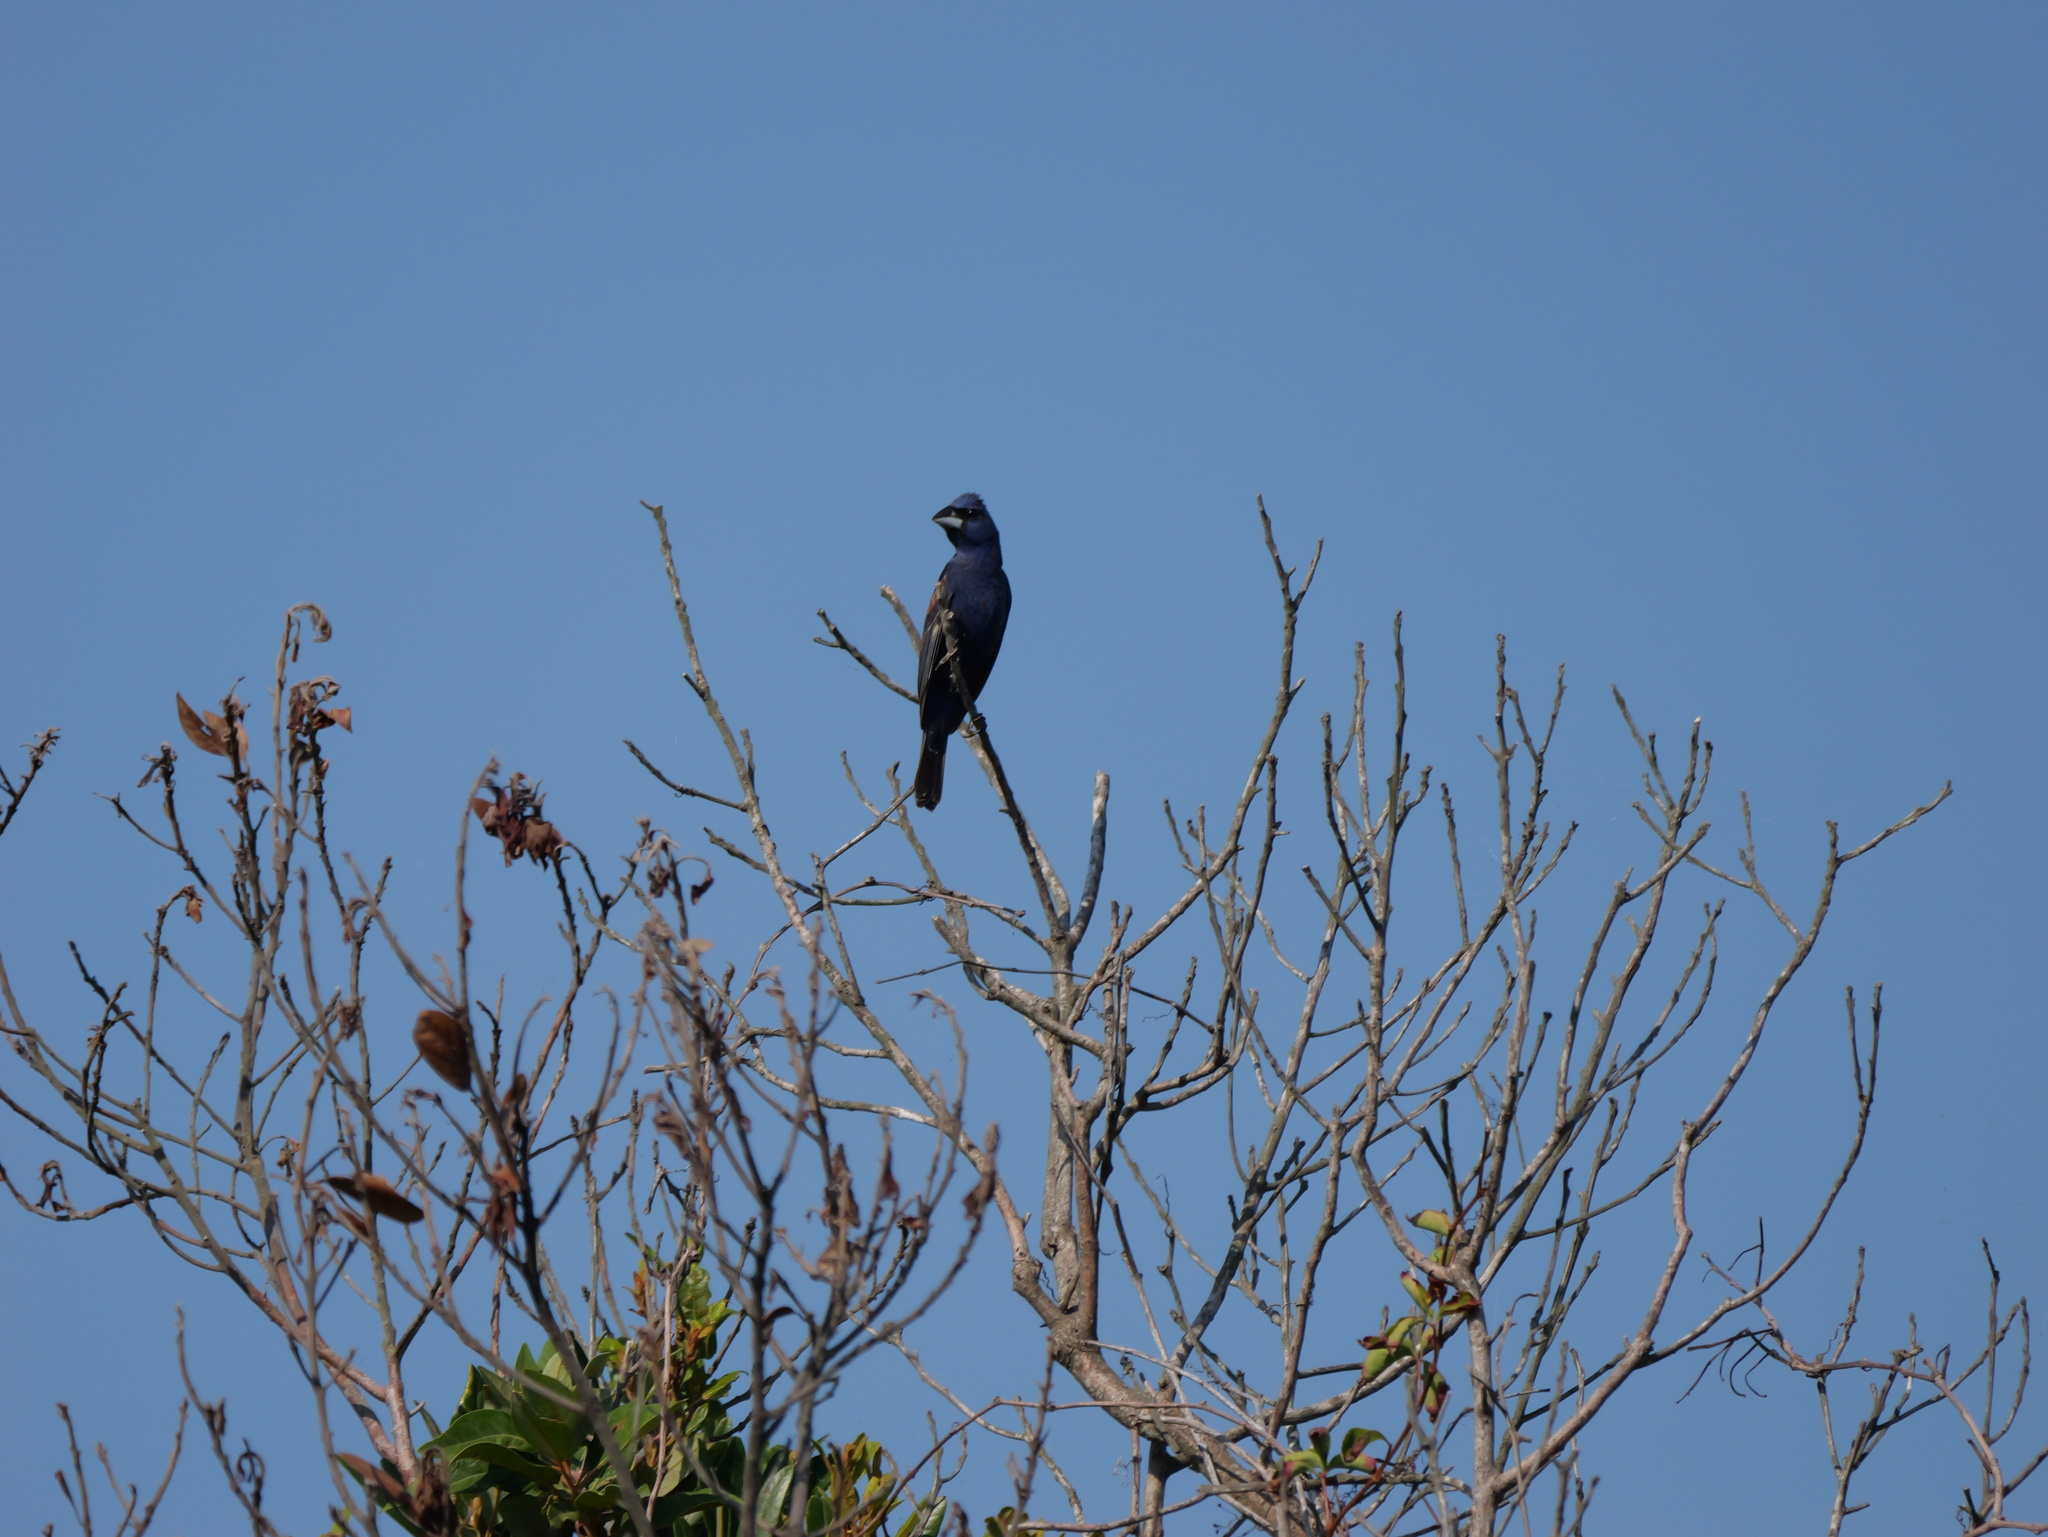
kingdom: Animalia
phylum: Chordata
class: Aves
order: Passeriformes
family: Cardinalidae
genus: Passerina
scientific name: Passerina caerulea
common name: Blue grosbeak
